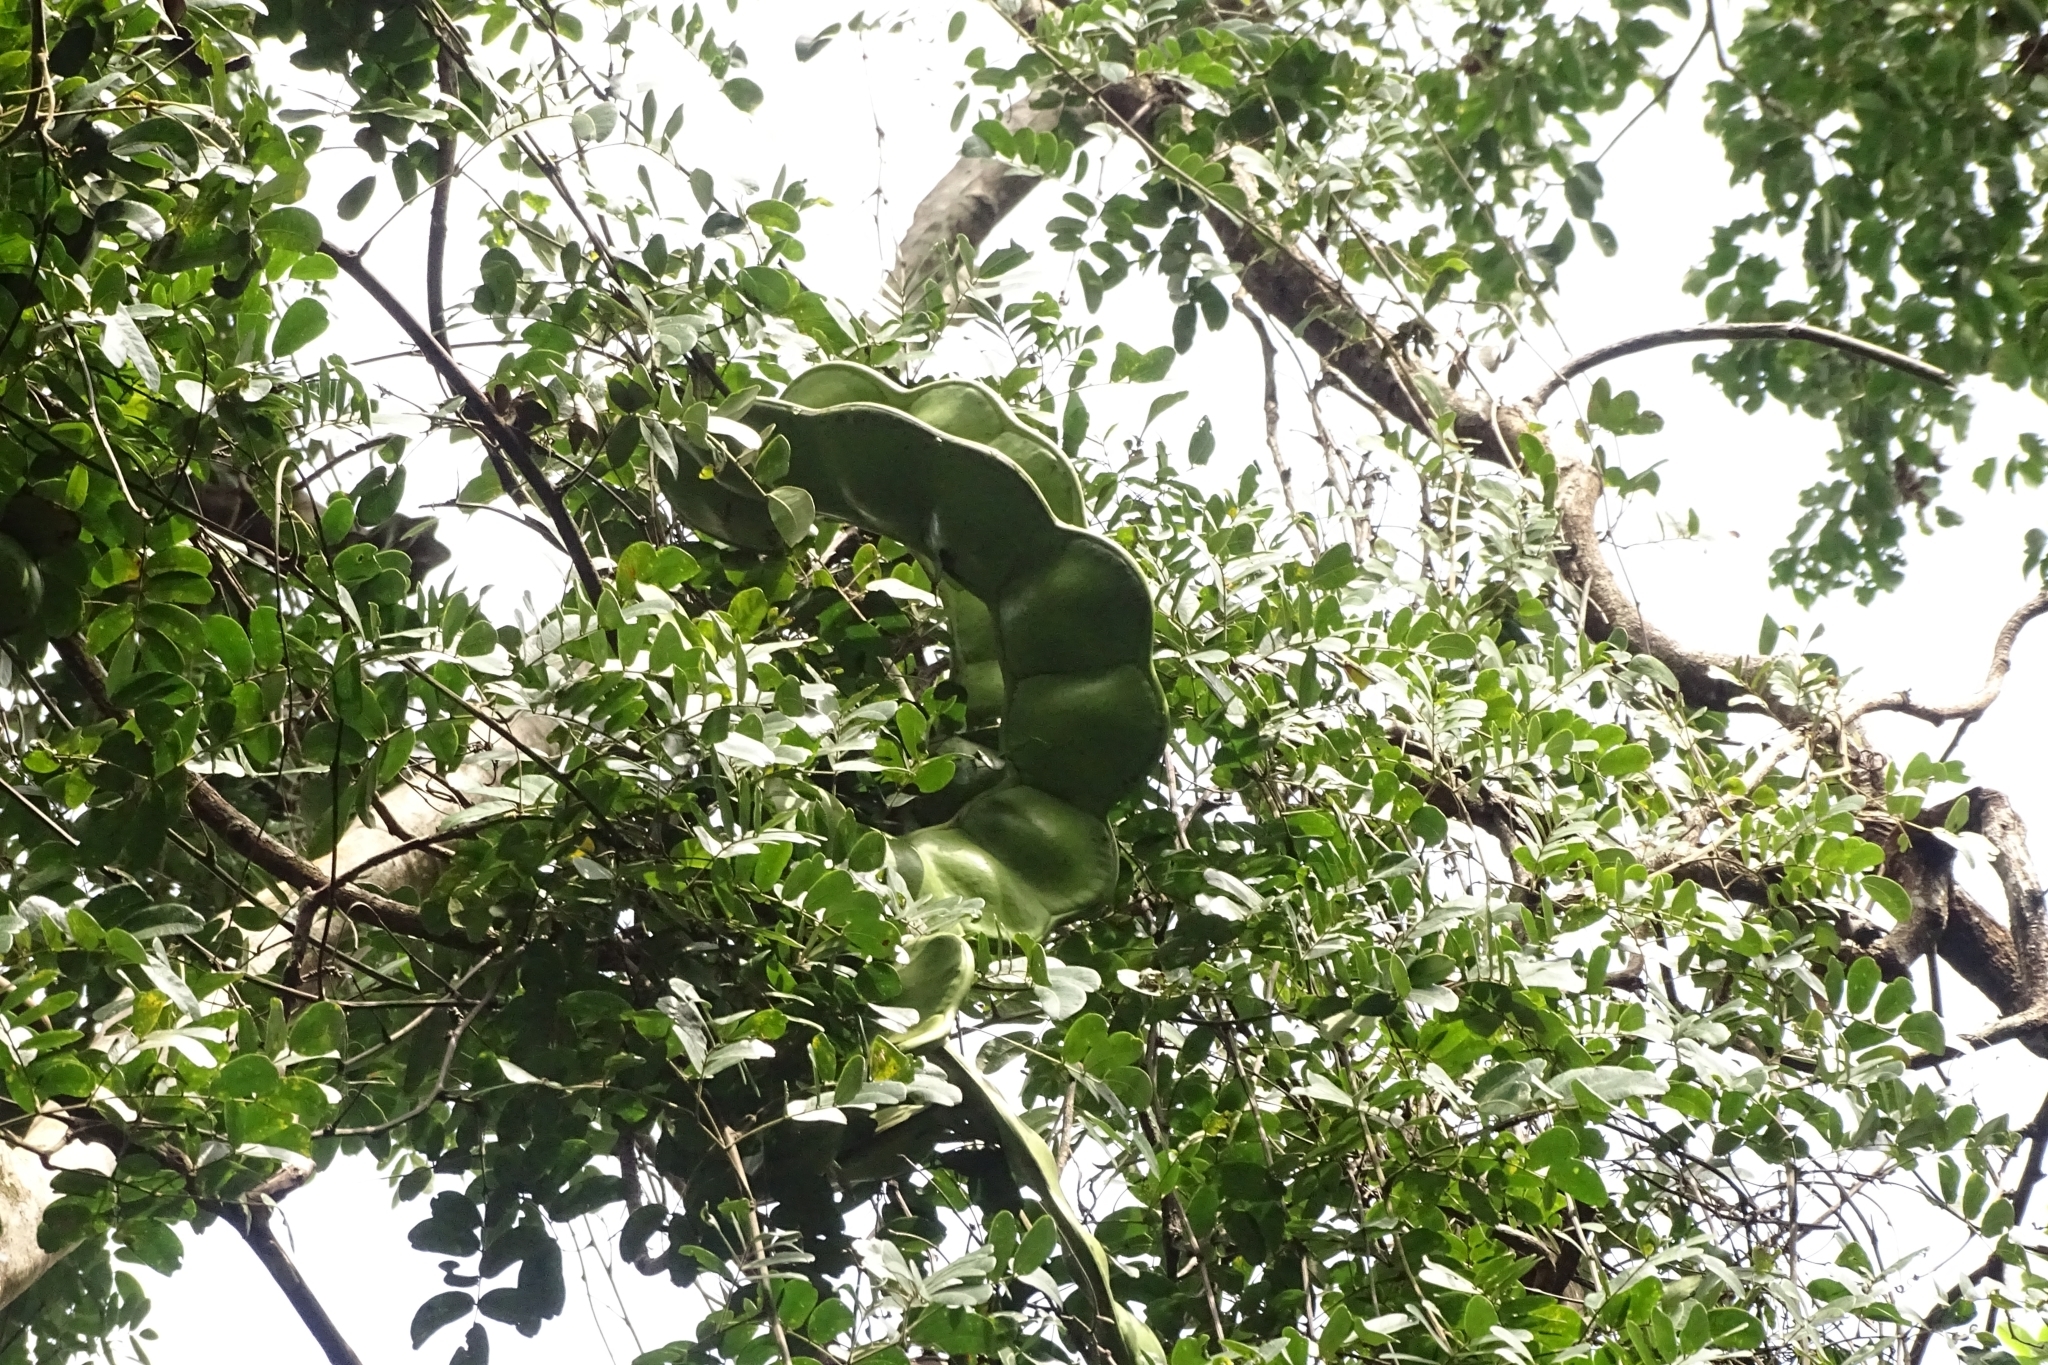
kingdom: Plantae
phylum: Tracheophyta
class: Magnoliopsida
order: Fabales
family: Fabaceae
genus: Entada
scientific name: Entada rheedei
